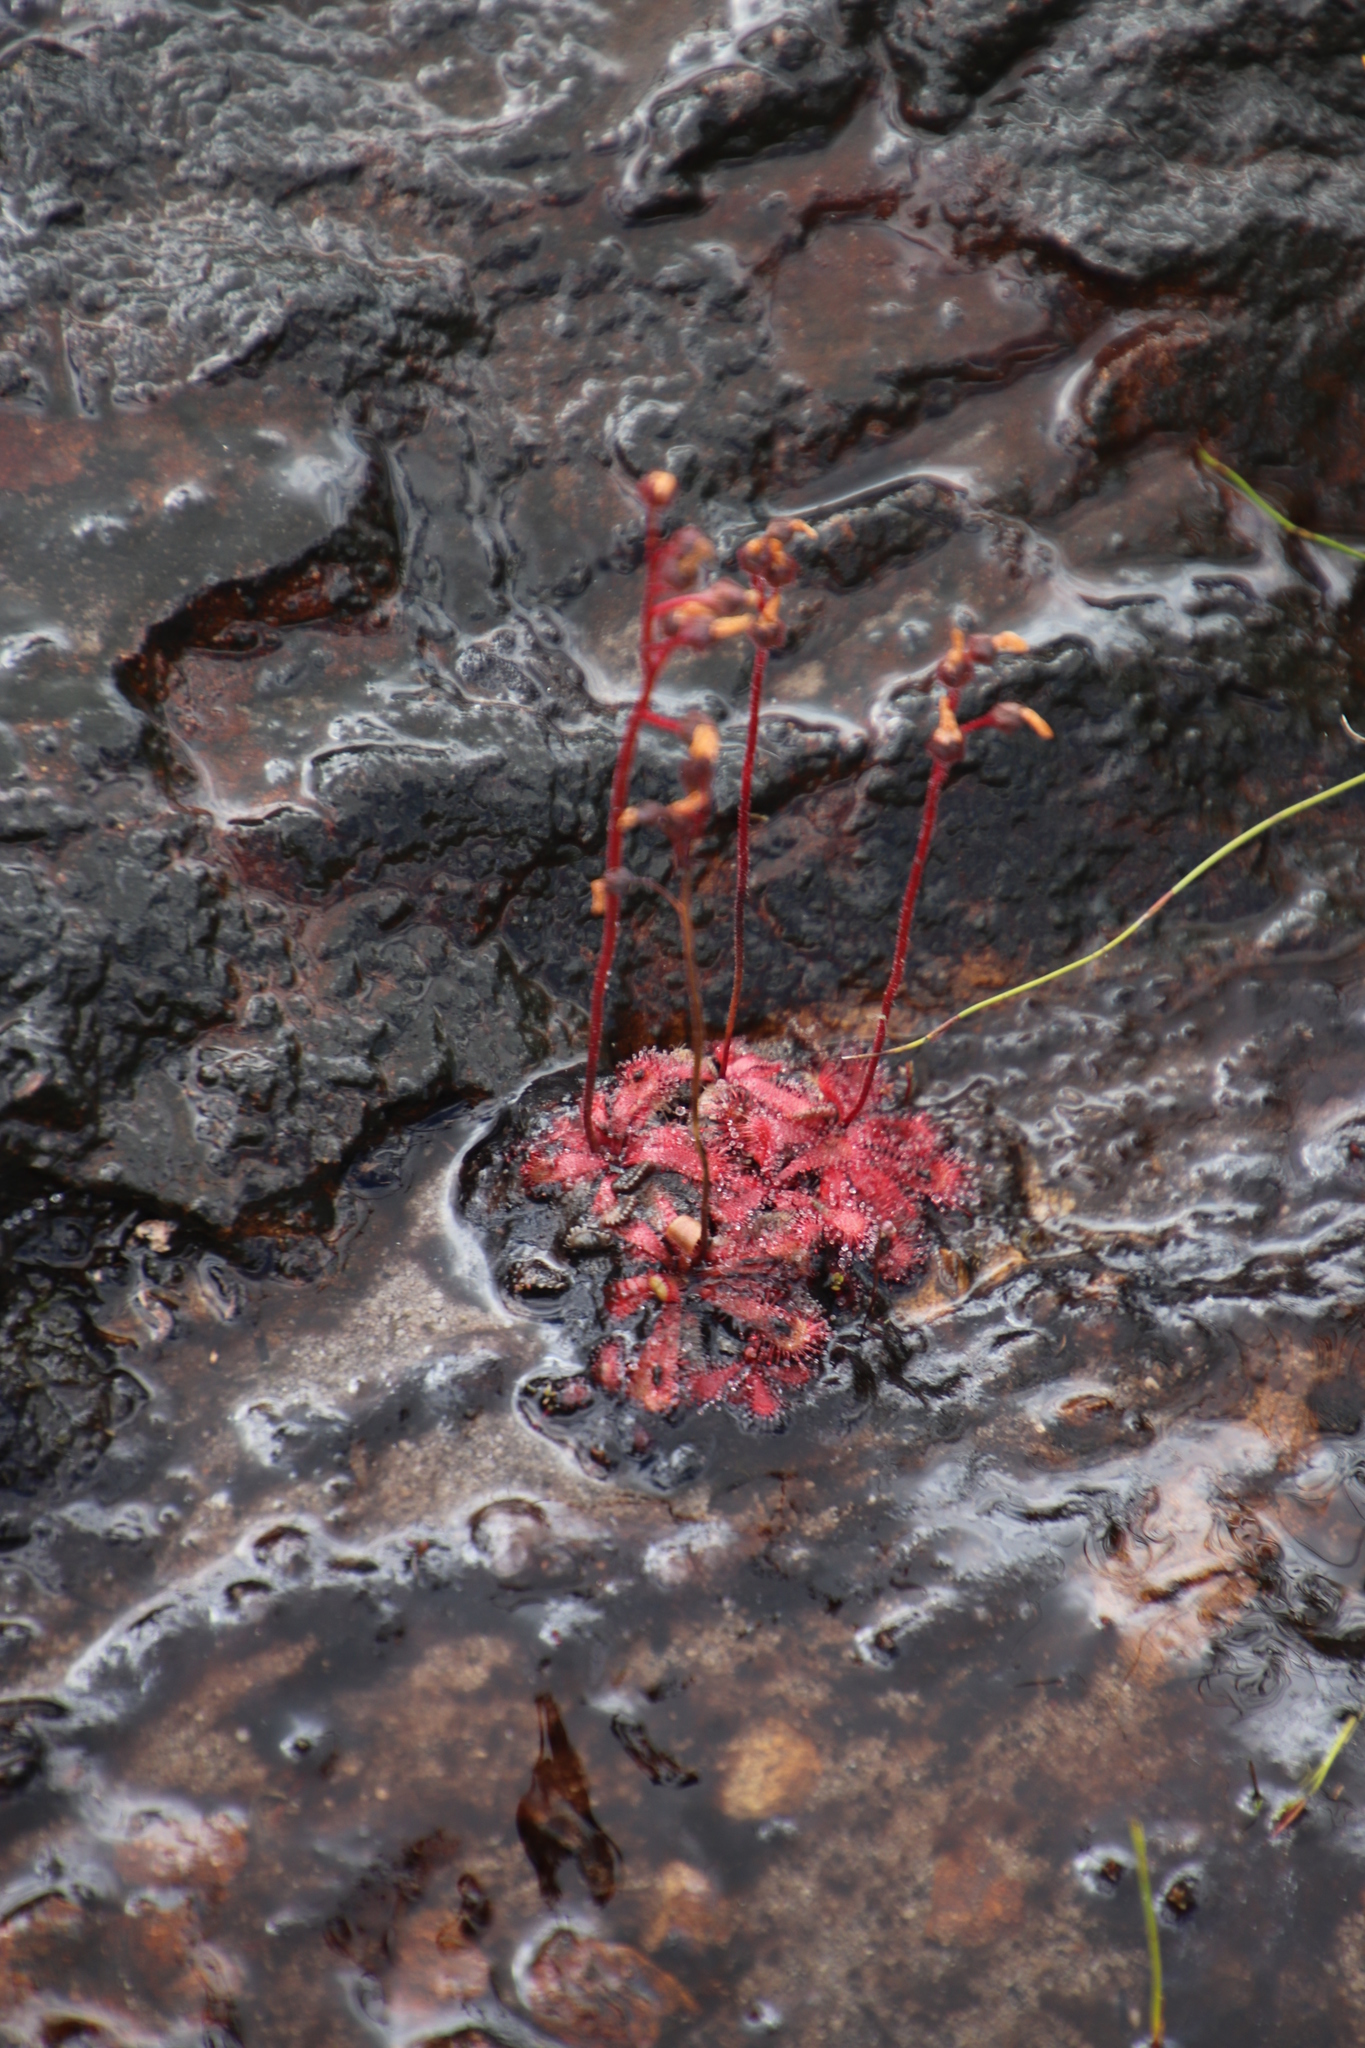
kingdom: Plantae
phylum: Tracheophyta
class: Magnoliopsida
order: Caryophyllales
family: Droseraceae
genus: Drosera
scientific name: Drosera trinervia
